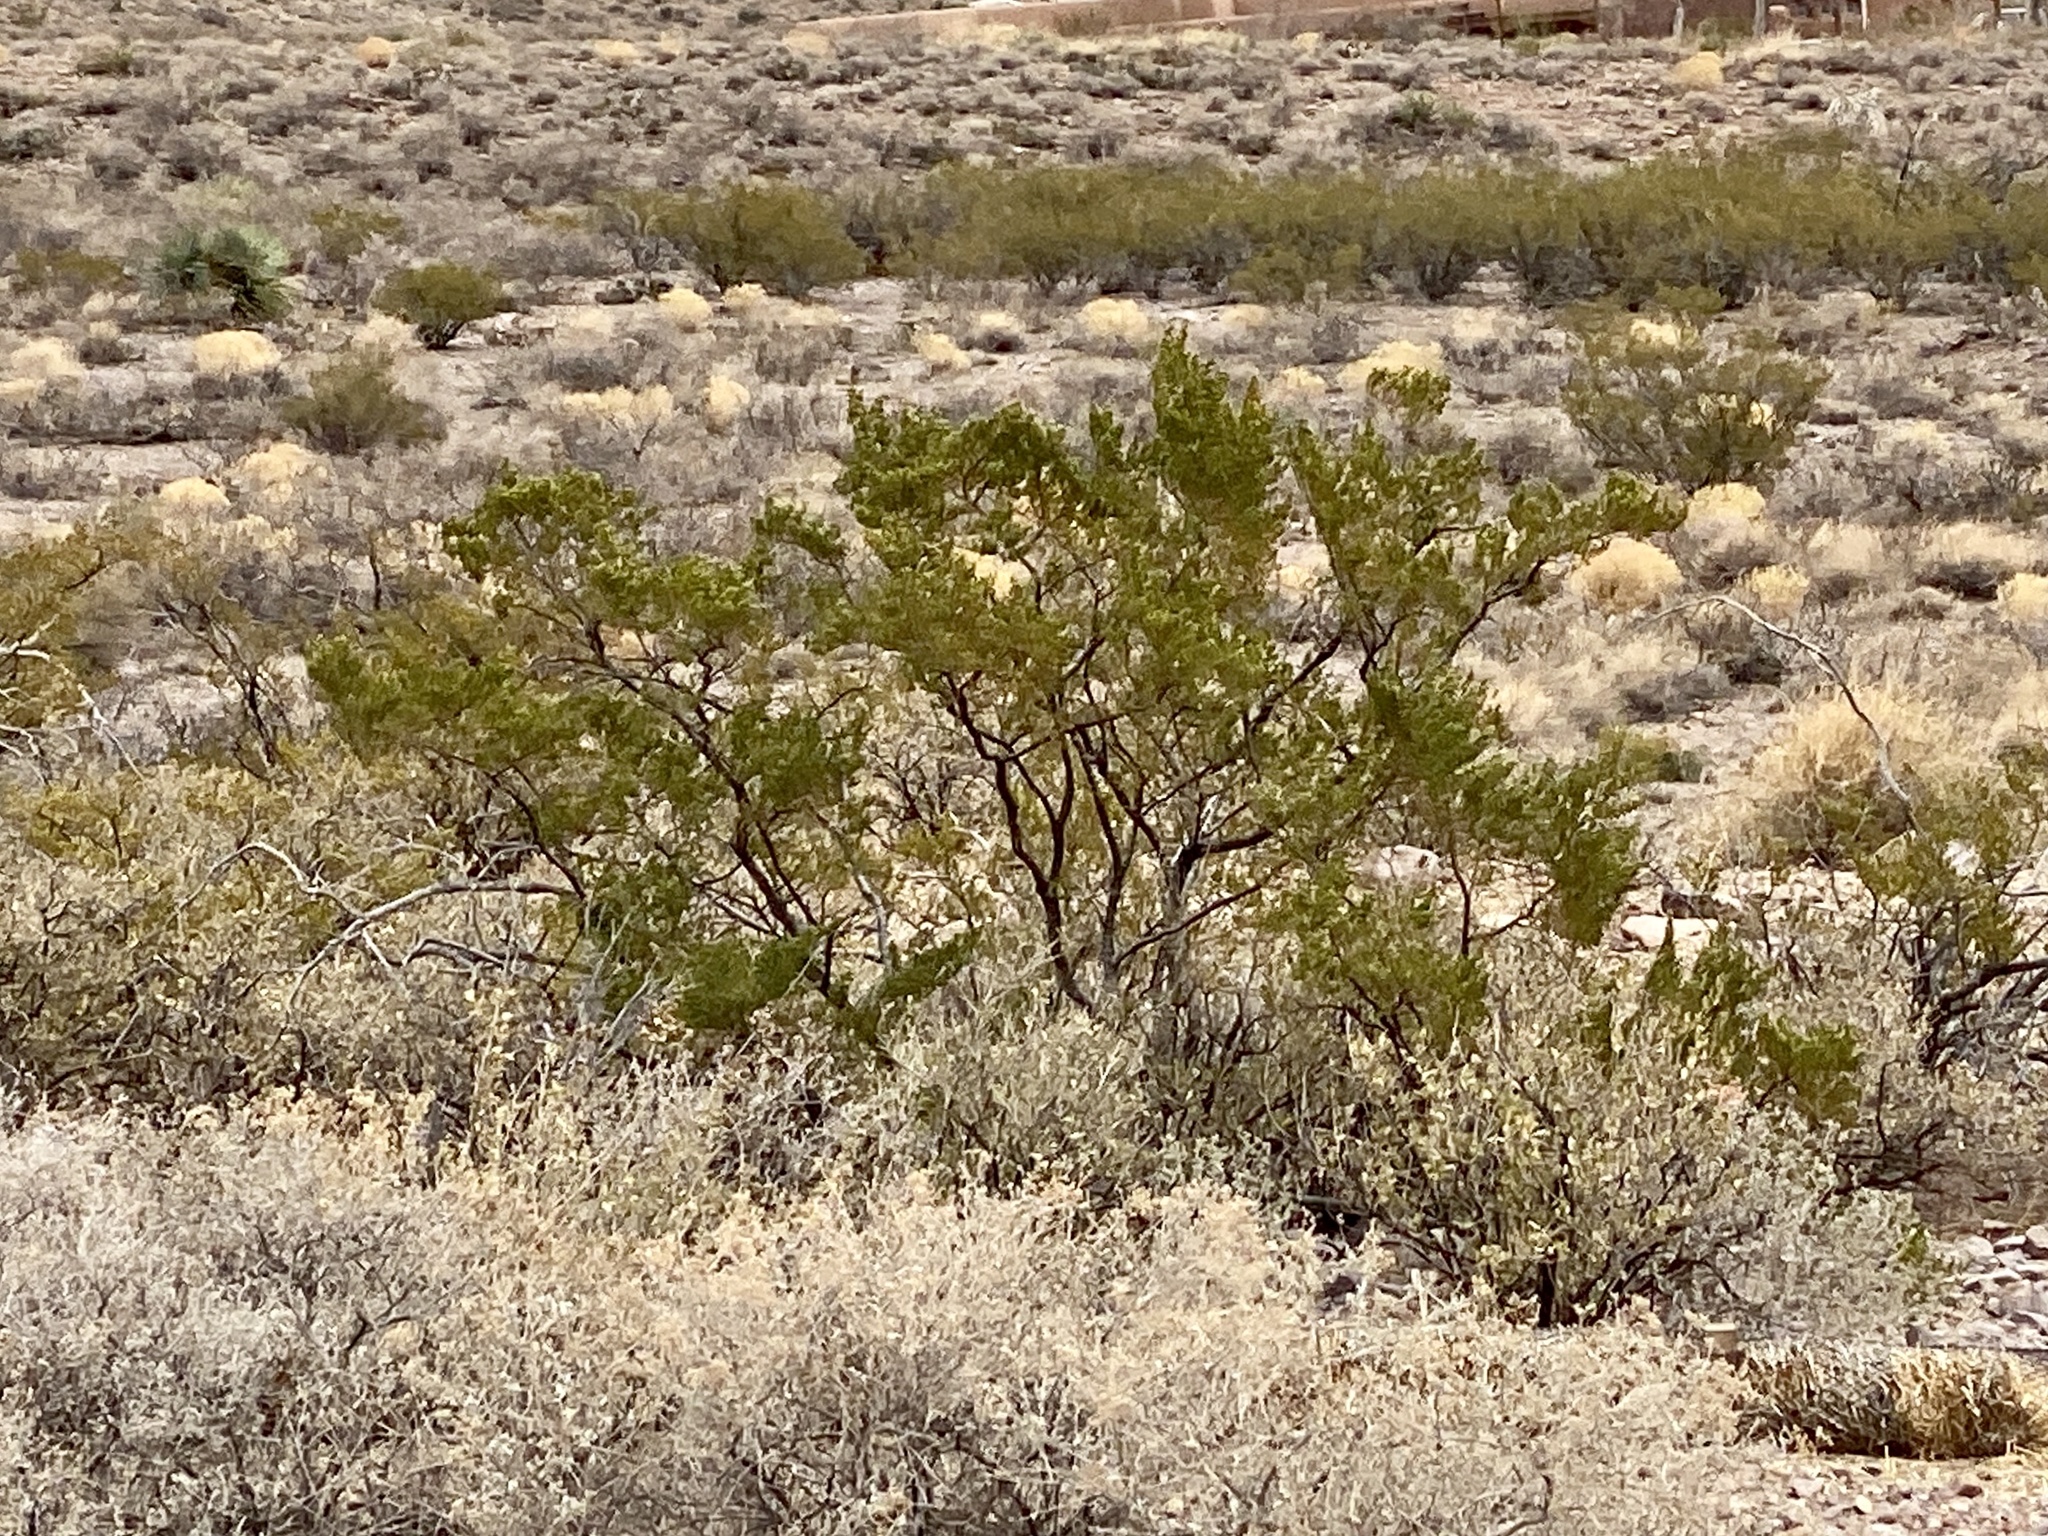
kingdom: Plantae
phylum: Tracheophyta
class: Magnoliopsida
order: Zygophyllales
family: Zygophyllaceae
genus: Larrea
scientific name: Larrea tridentata
